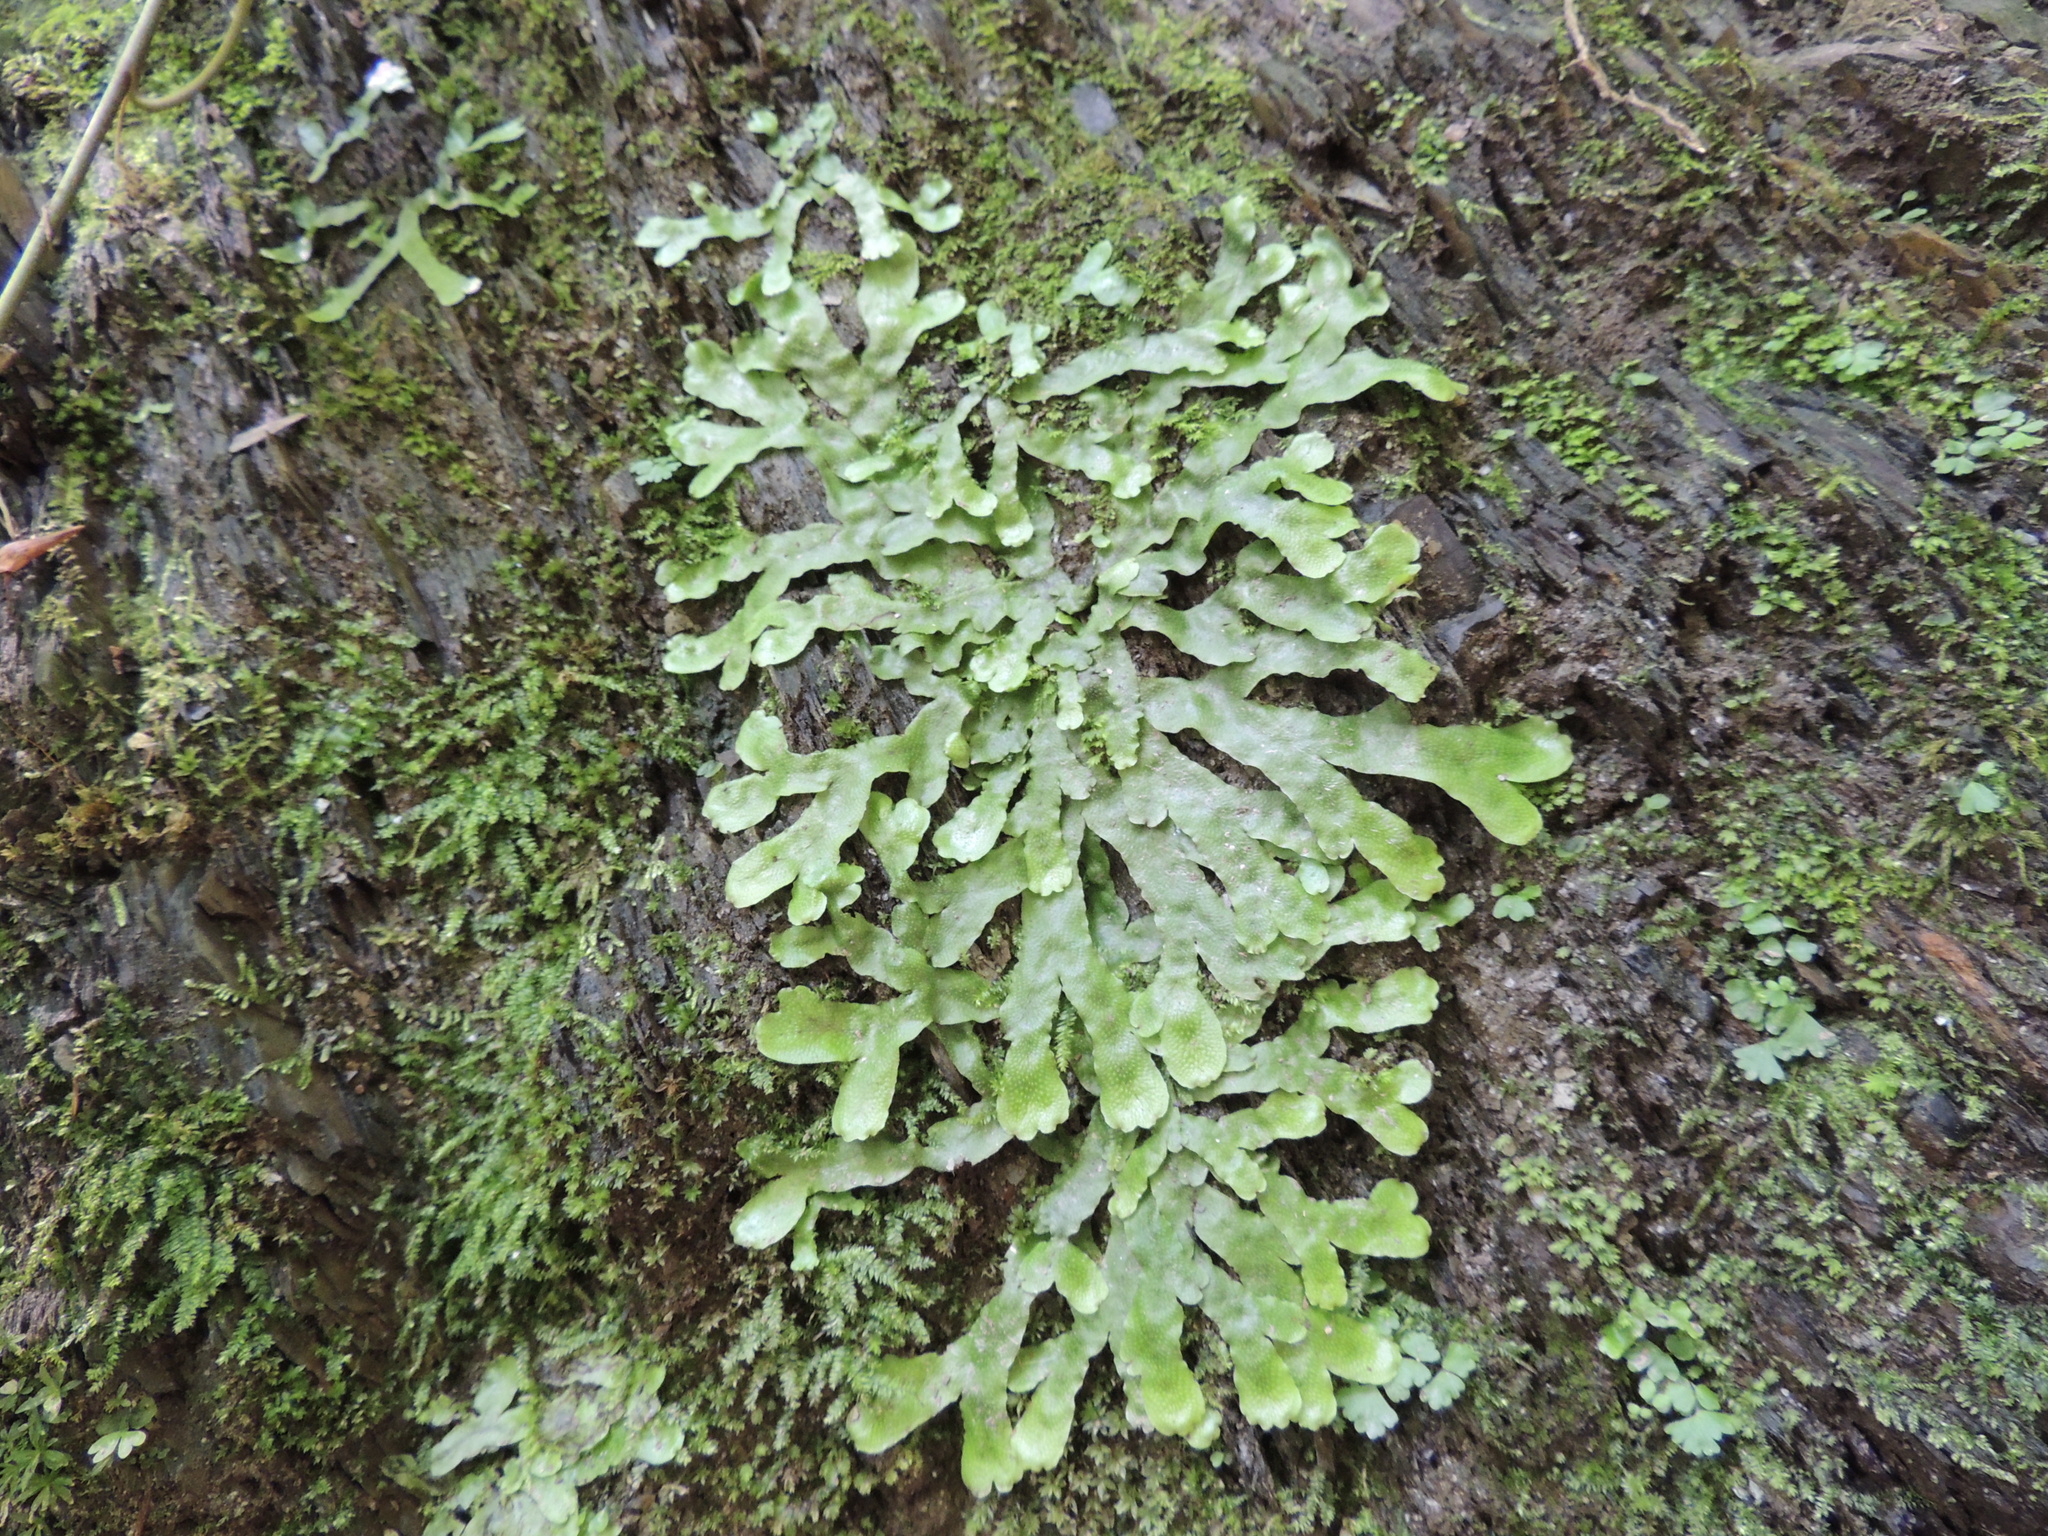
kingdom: Plantae
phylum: Marchantiophyta
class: Marchantiopsida
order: Marchantiales
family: Conocephalaceae
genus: Conocephalum
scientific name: Conocephalum conicum
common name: Great scented liverwort
